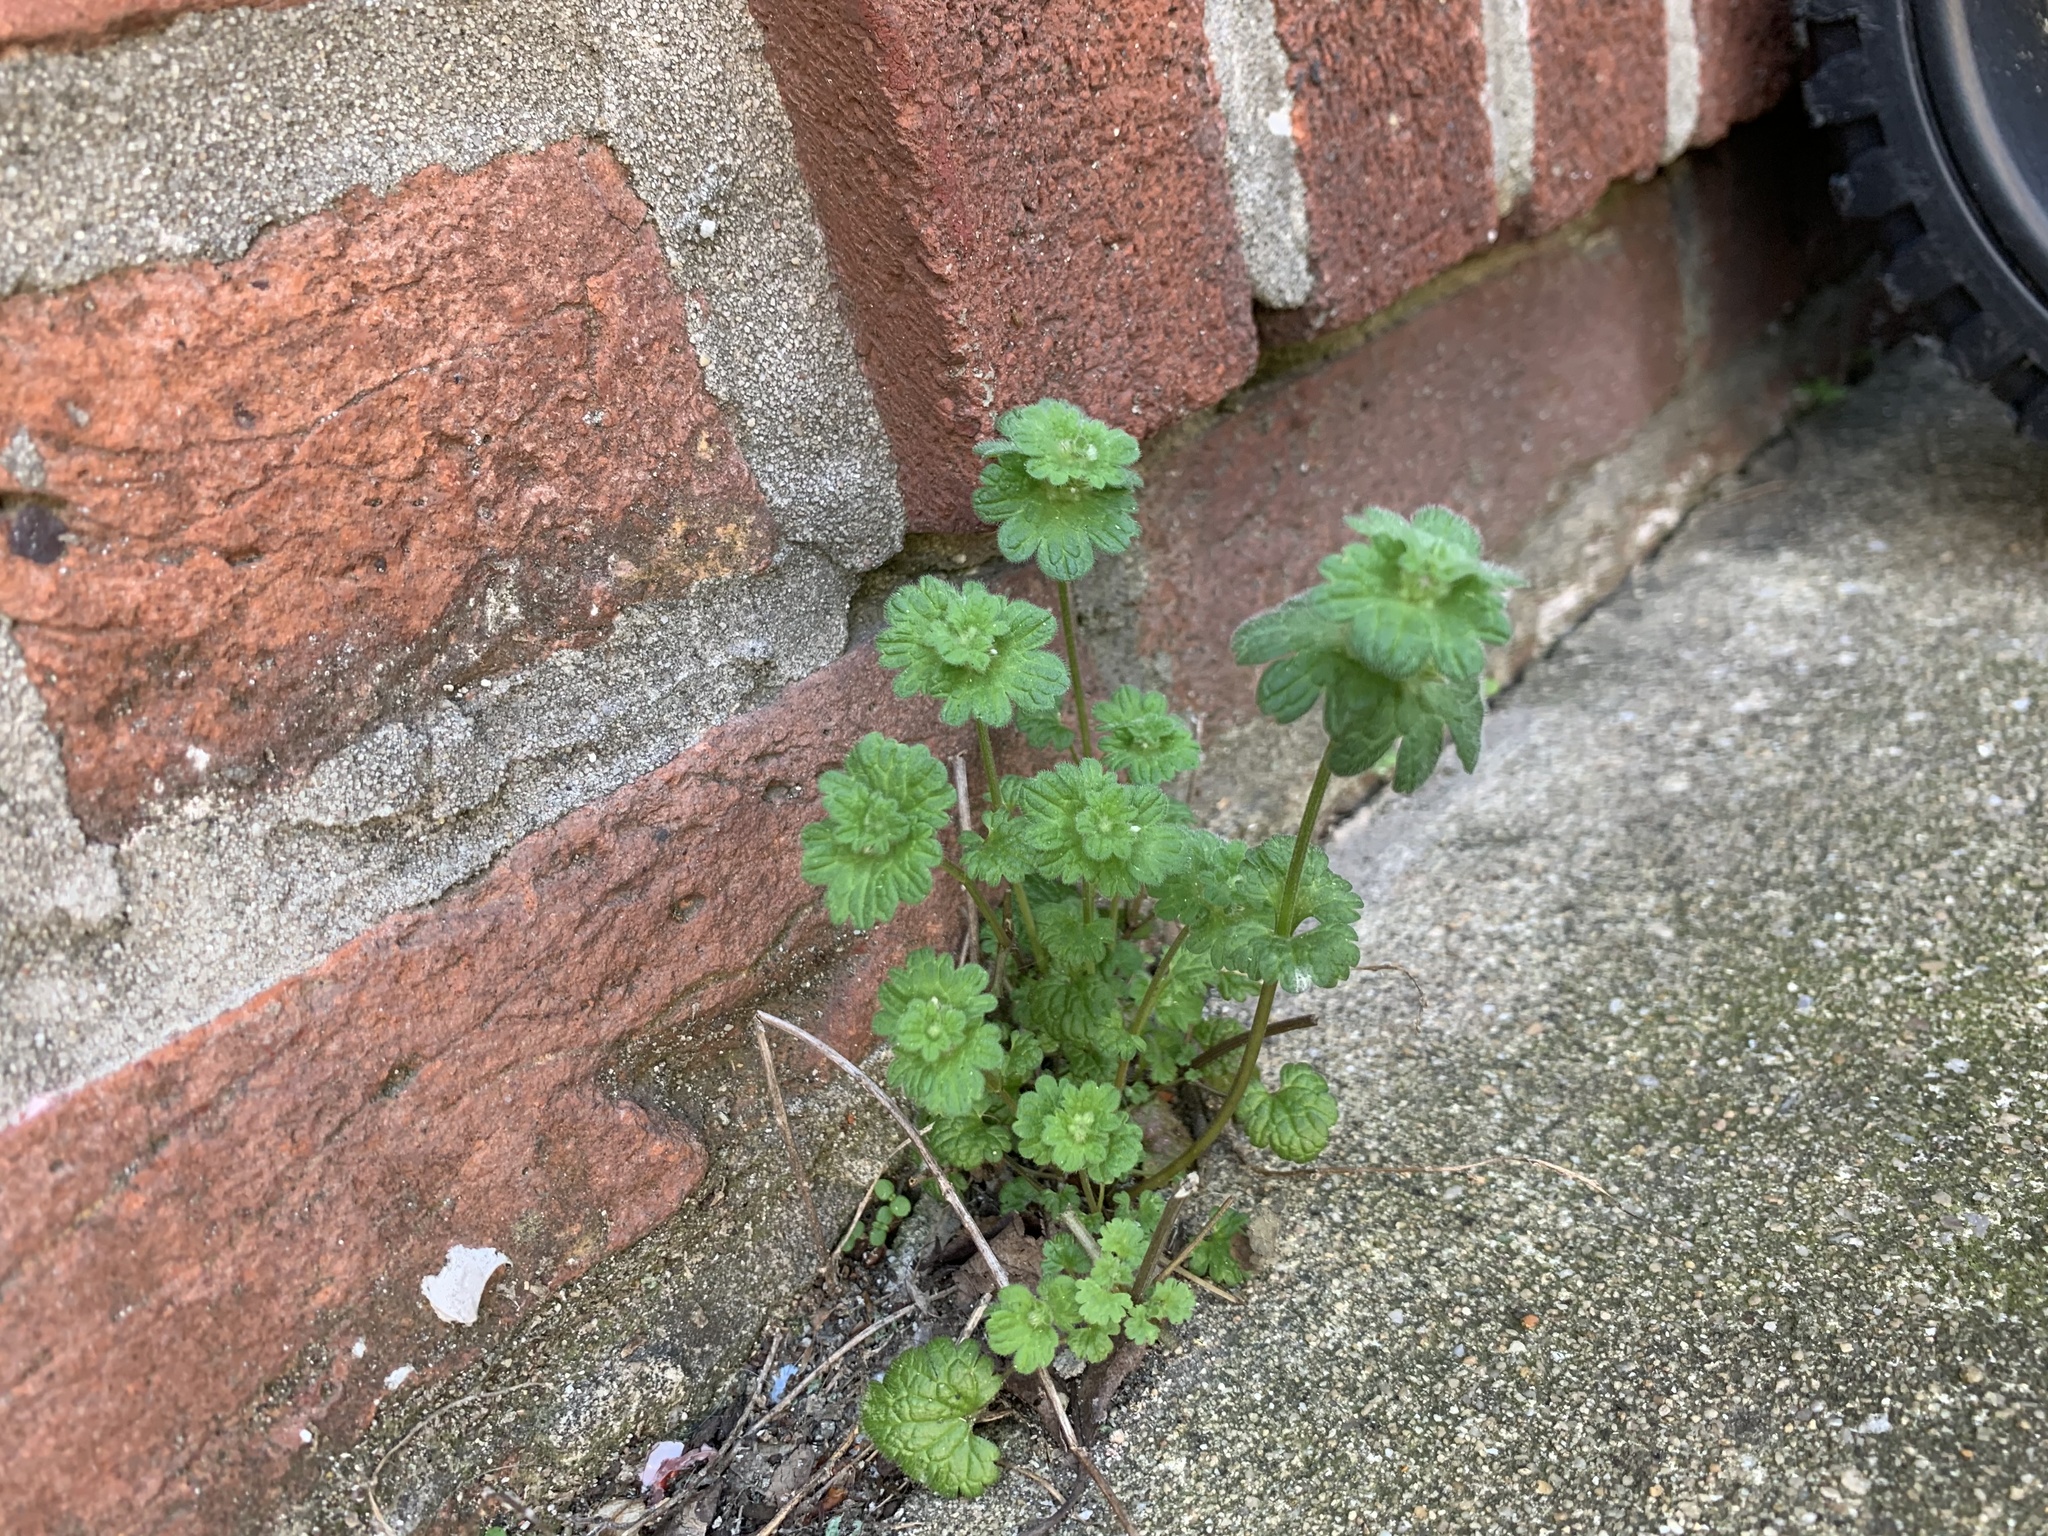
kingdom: Plantae
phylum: Tracheophyta
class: Magnoliopsida
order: Lamiales
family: Lamiaceae
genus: Lamium
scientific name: Lamium amplexicaule
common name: Henbit dead-nettle
